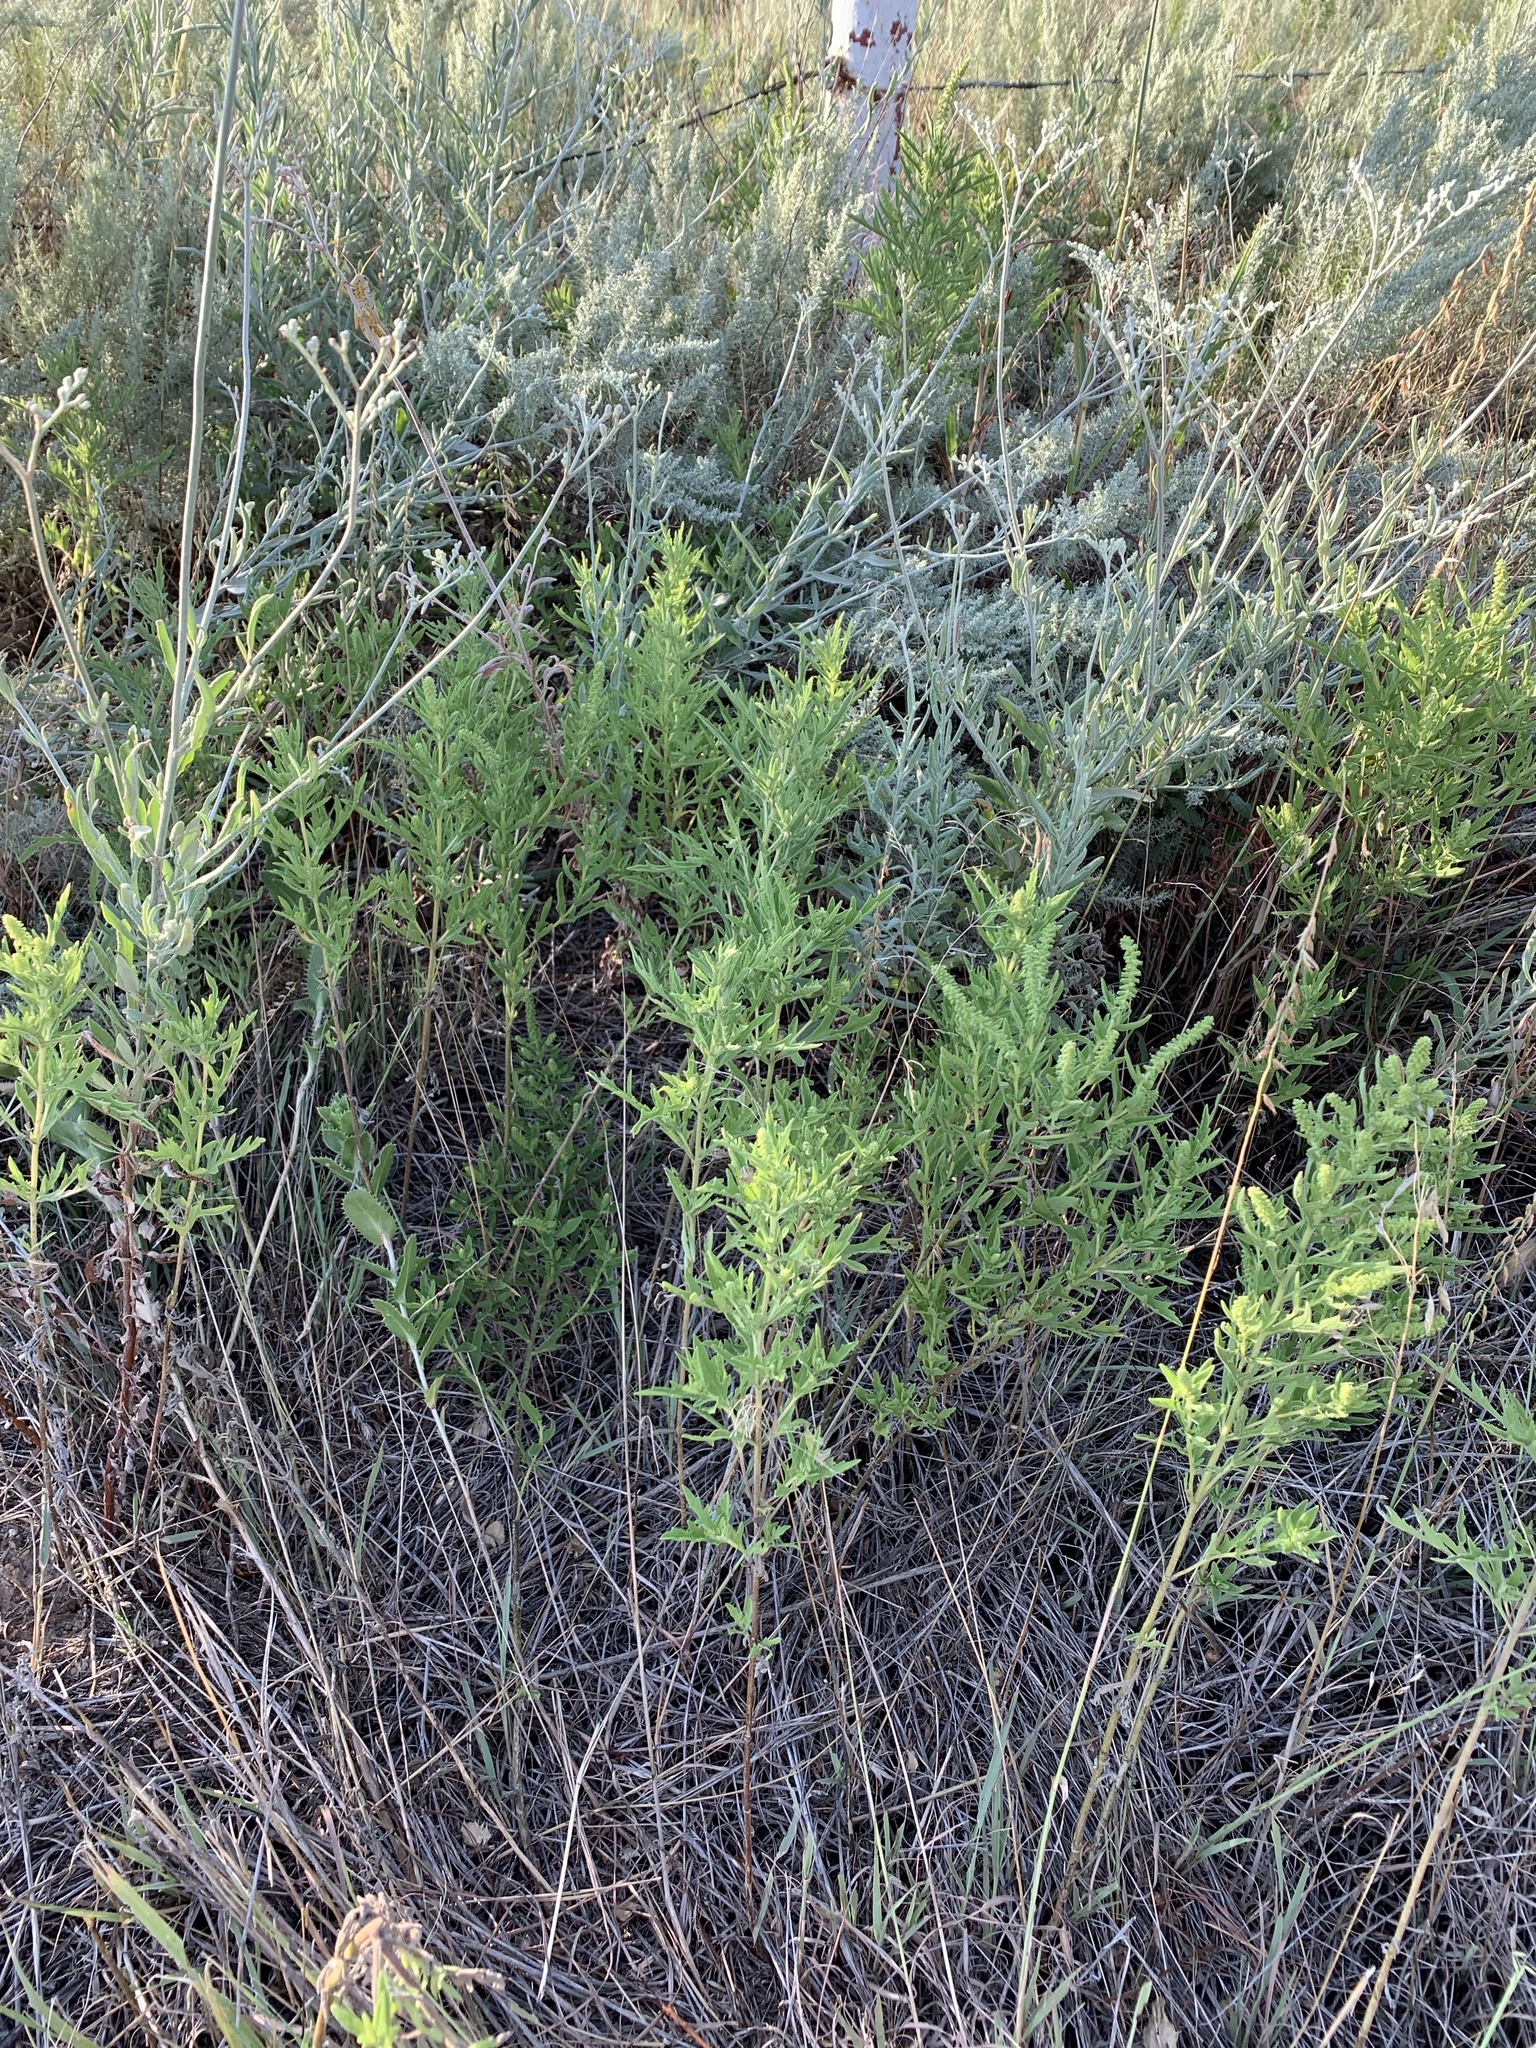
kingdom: Plantae
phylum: Tracheophyta
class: Magnoliopsida
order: Asterales
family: Asteraceae
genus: Ambrosia
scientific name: Ambrosia psilostachya
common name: Perennial ragweed
